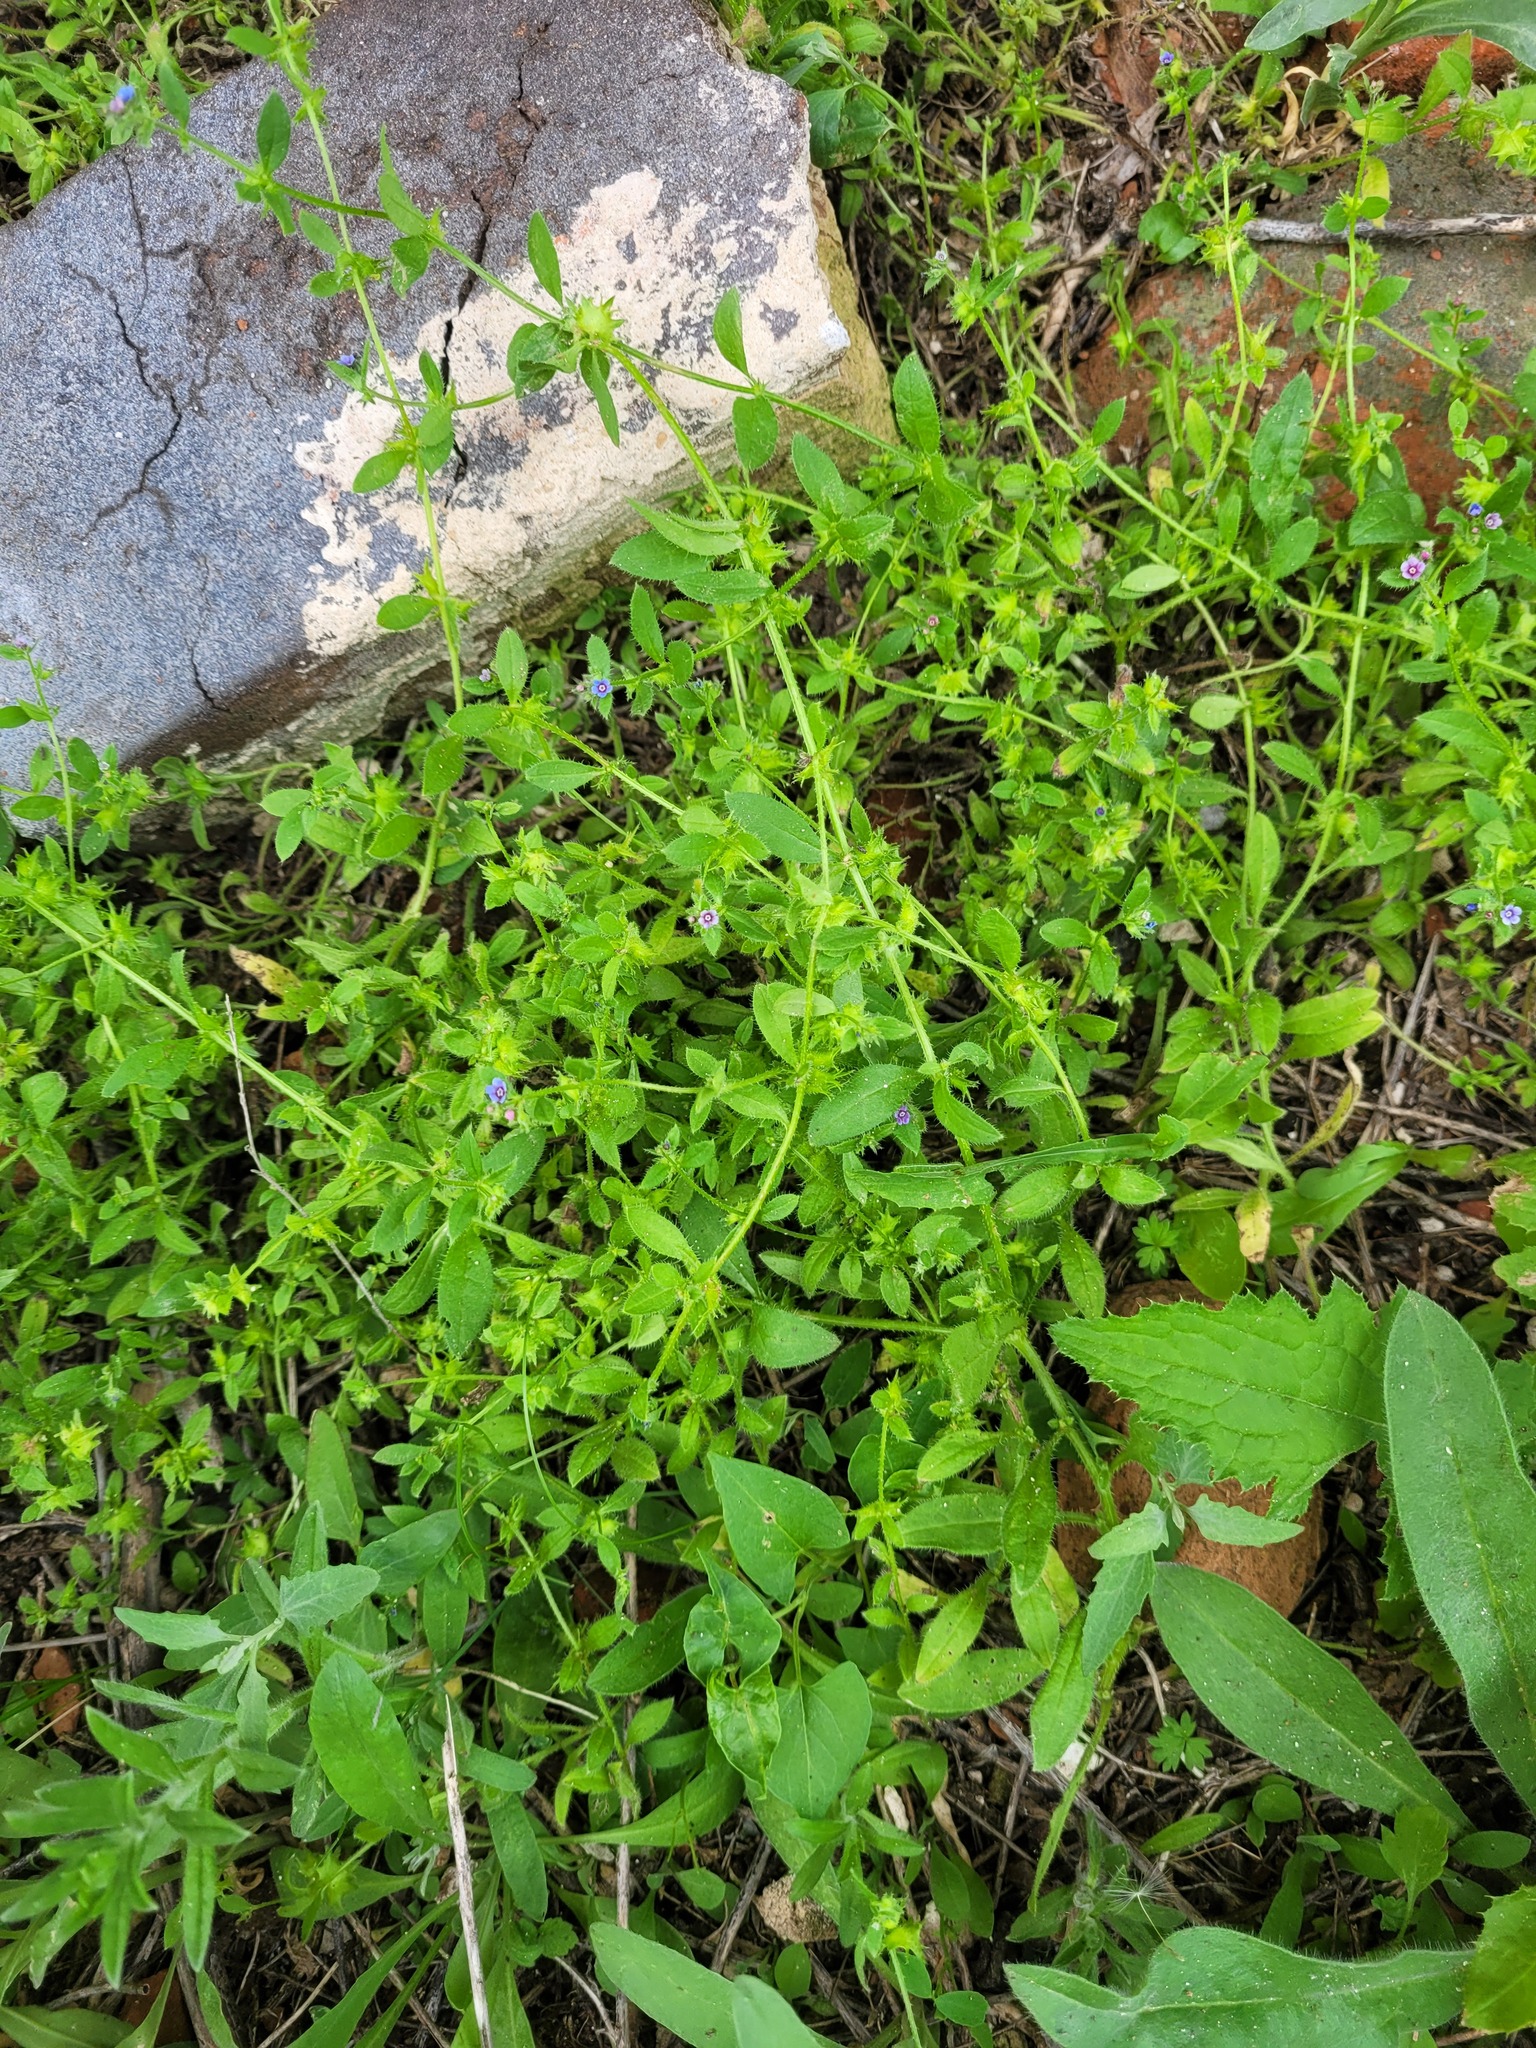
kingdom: Plantae
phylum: Tracheophyta
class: Magnoliopsida
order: Boraginales
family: Boraginaceae
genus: Asperugo
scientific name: Asperugo procumbens
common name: Madwort
